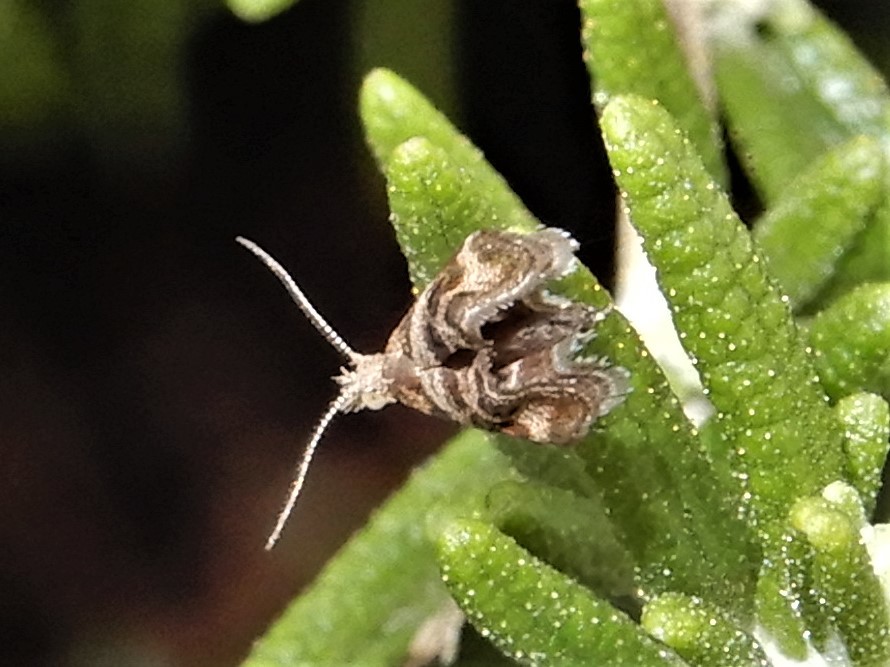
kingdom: Animalia
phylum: Arthropoda
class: Insecta
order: Lepidoptera
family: Choreutidae
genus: Tebenna
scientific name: Tebenna micalis
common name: Vagrant twitcher
